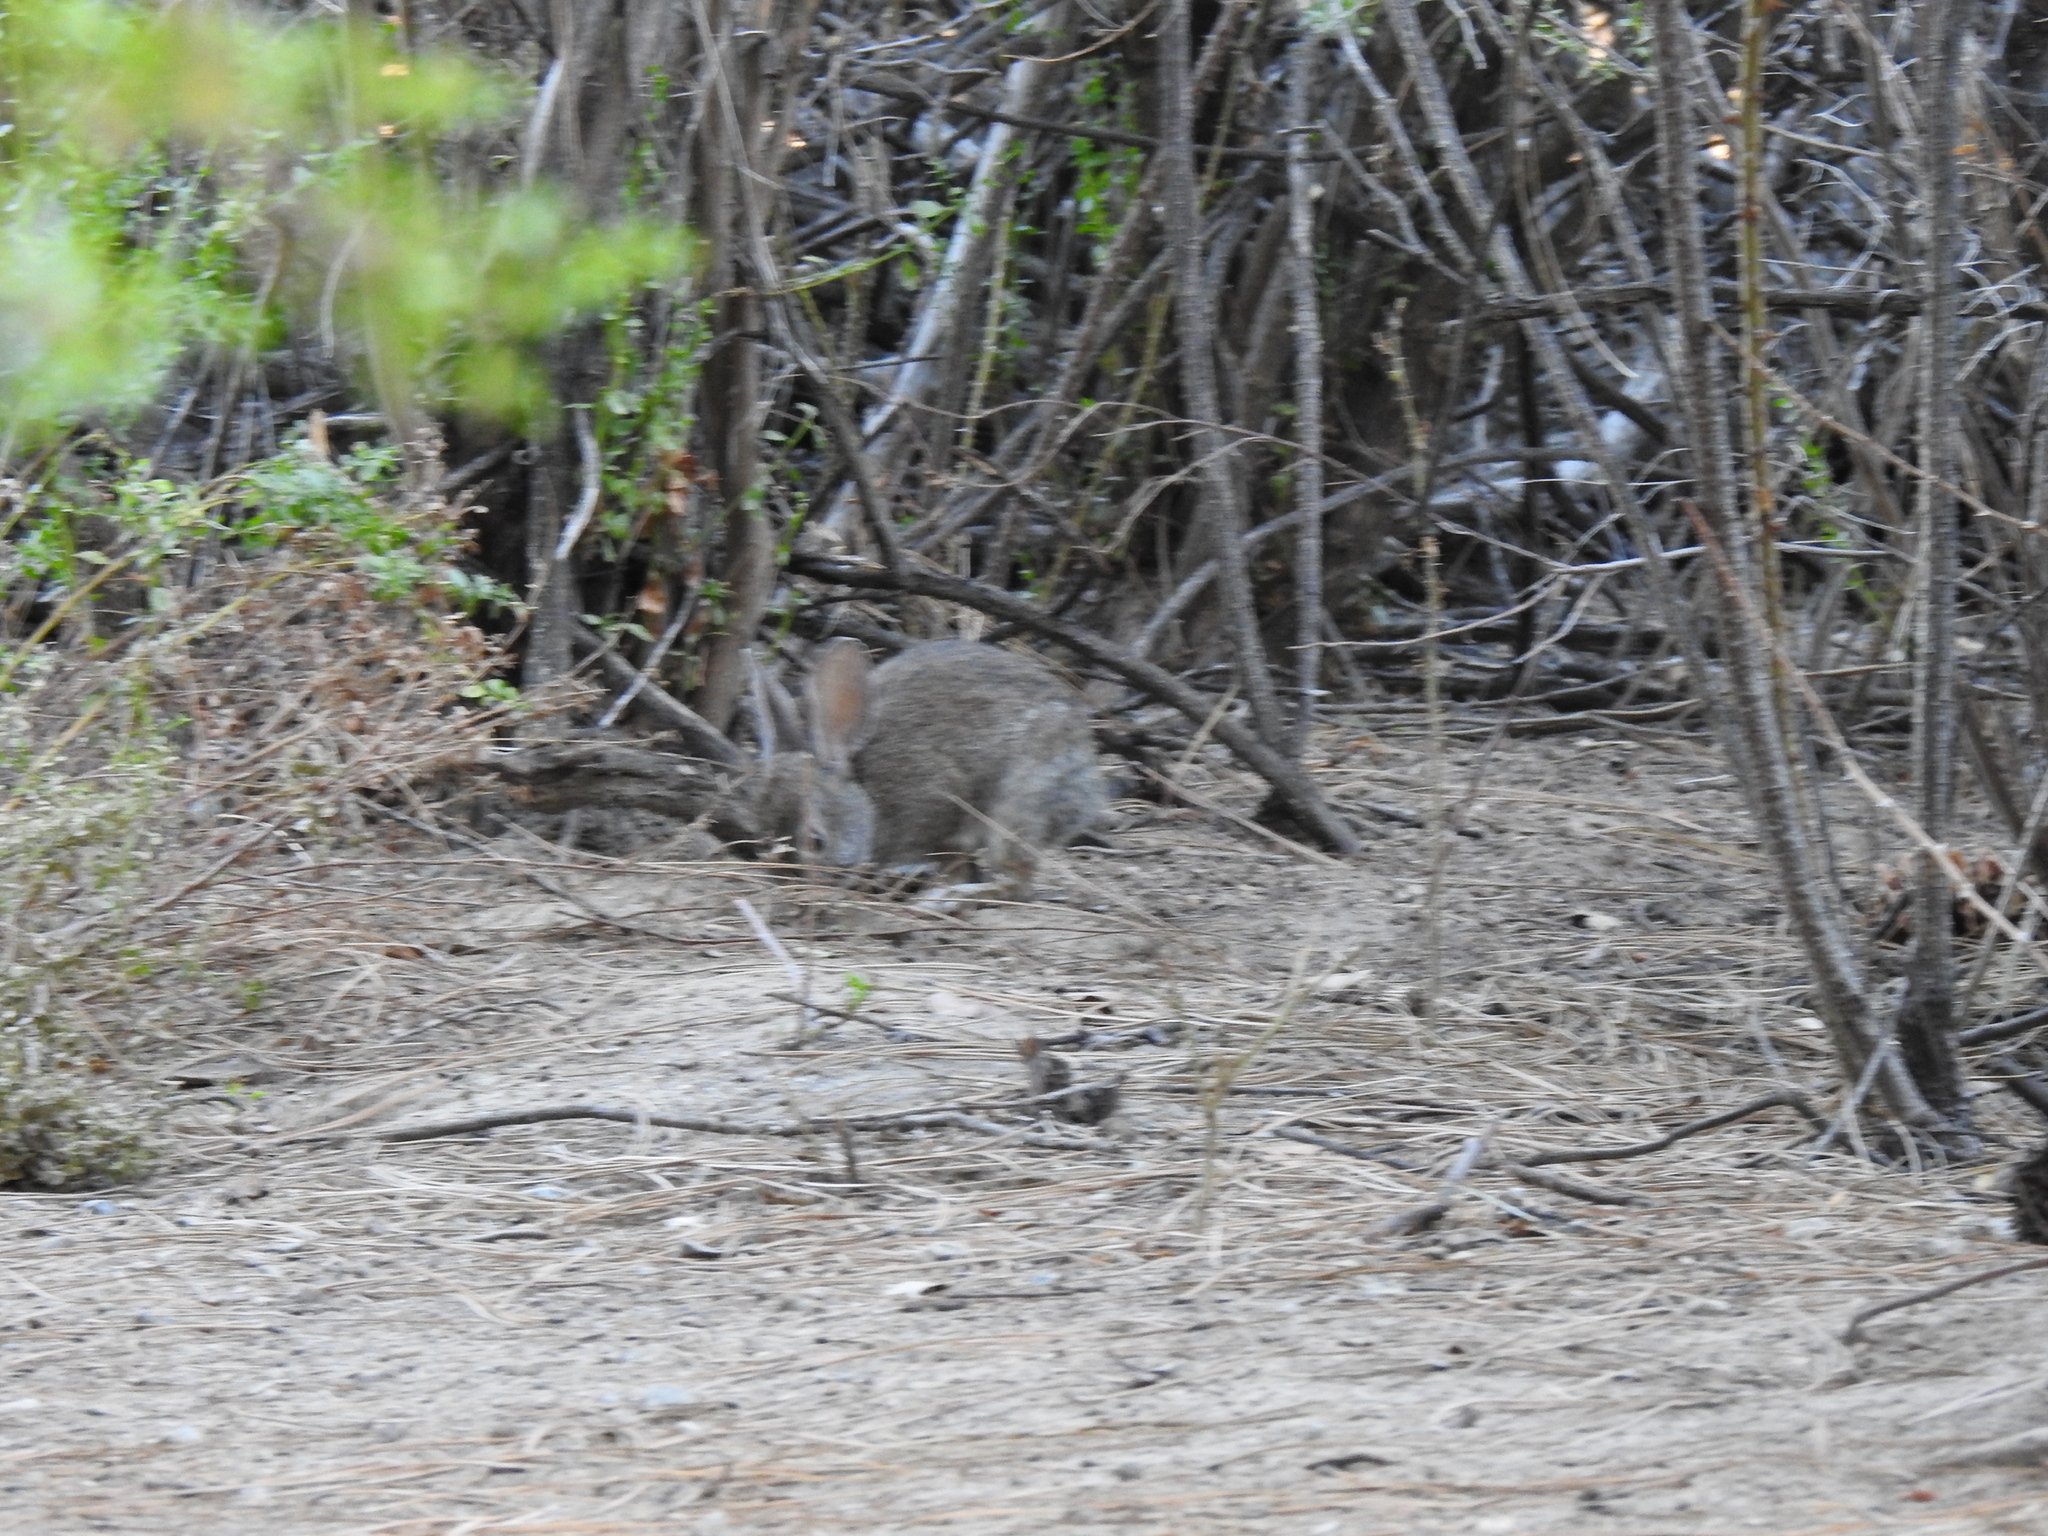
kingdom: Animalia
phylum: Chordata
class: Mammalia
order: Lagomorpha
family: Leporidae
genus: Sylvilagus
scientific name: Sylvilagus bachmani
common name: Brush rabbit
